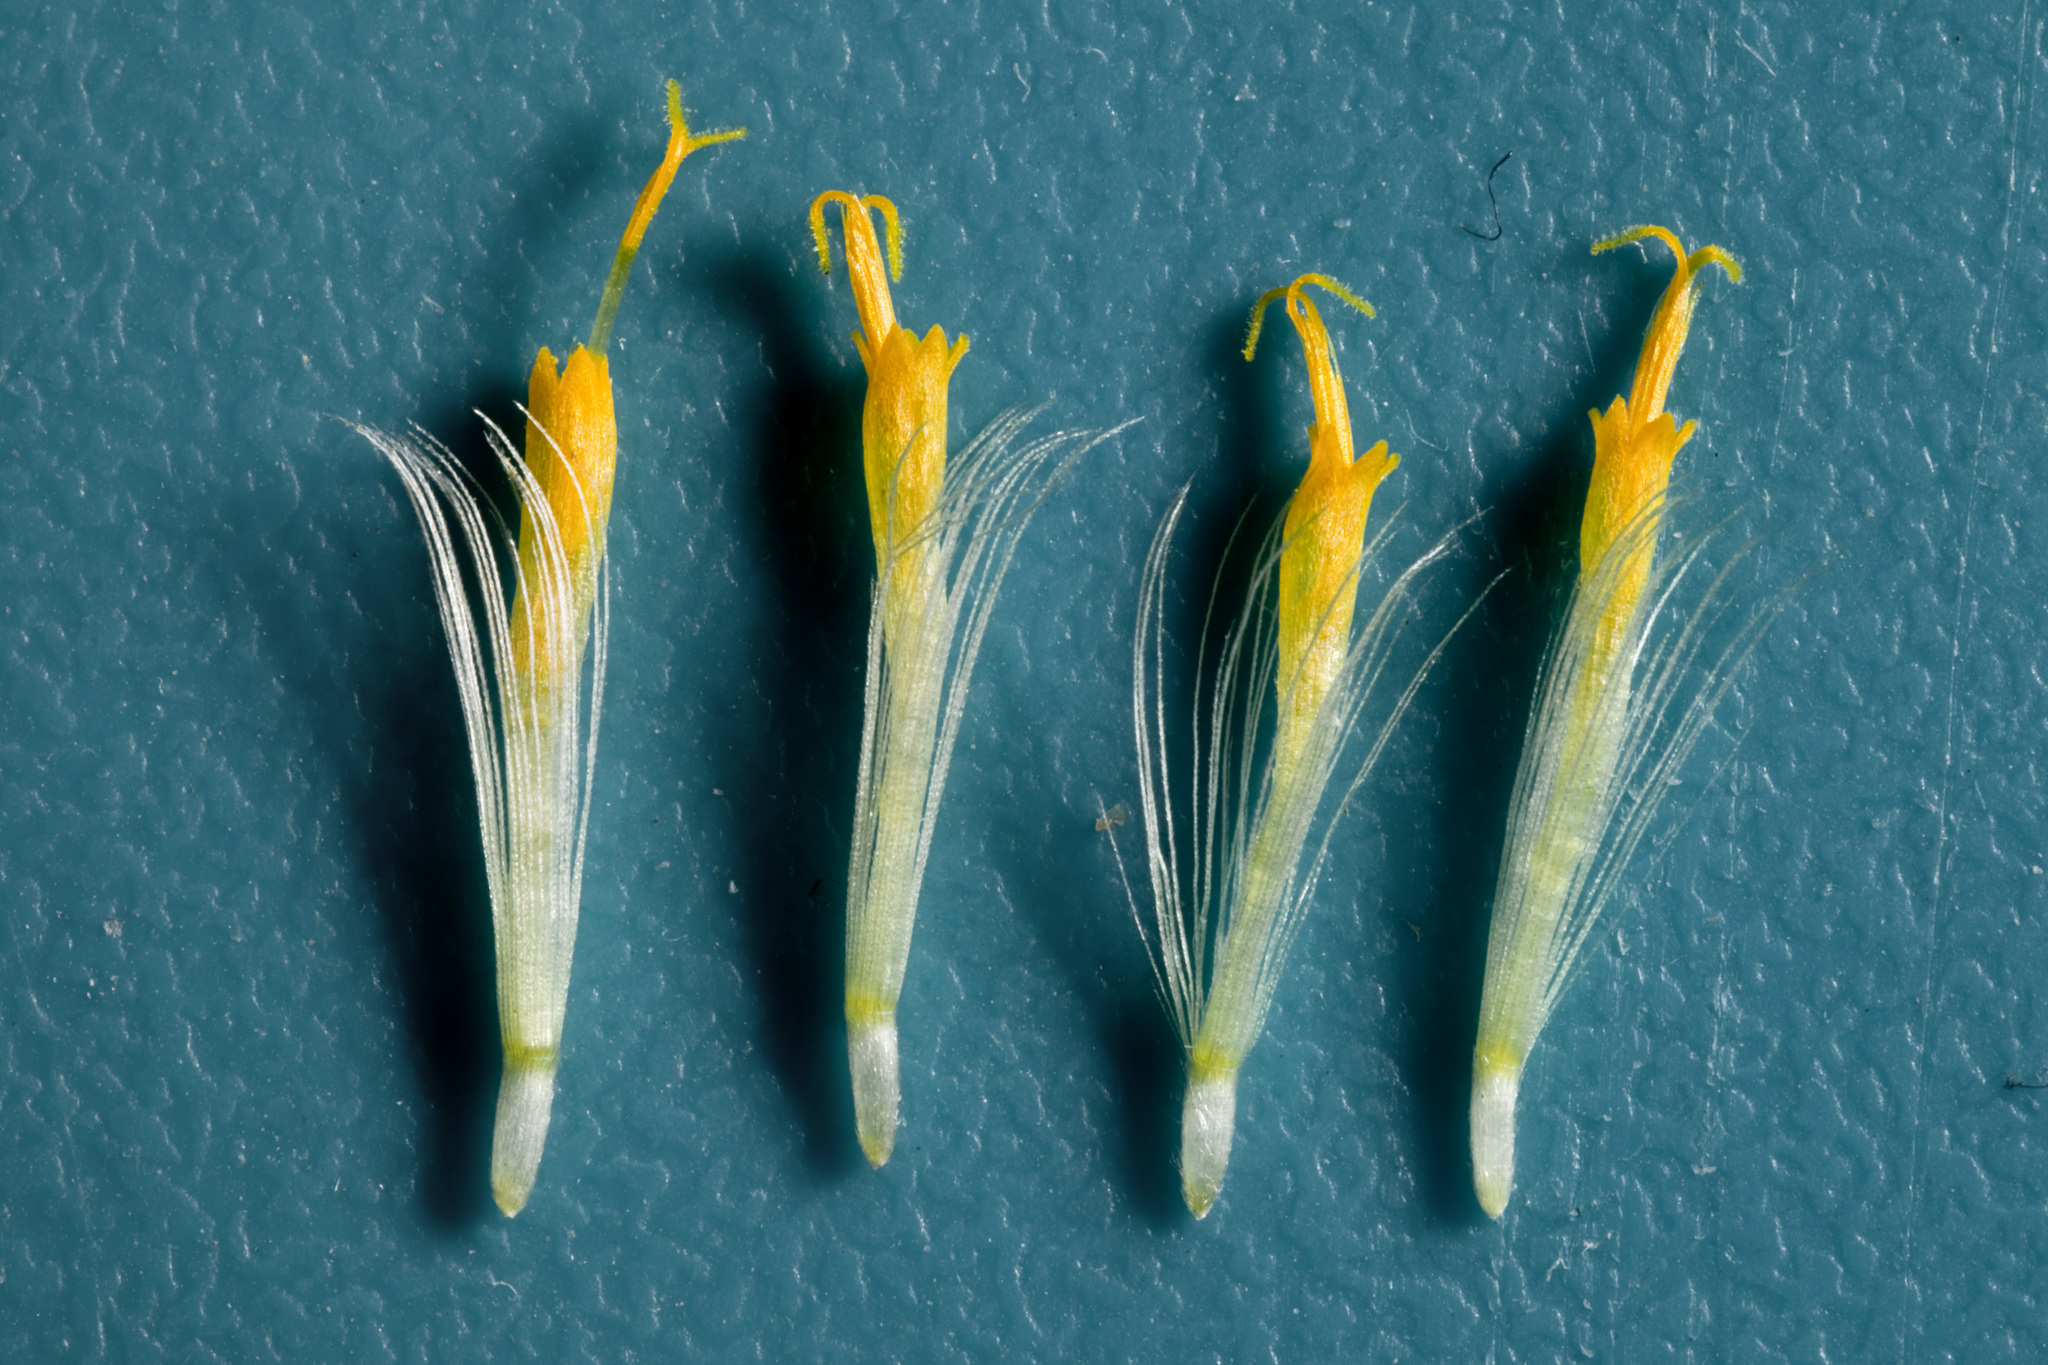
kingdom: Plantae
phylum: Tracheophyta
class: Magnoliopsida
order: Asterales
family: Asteraceae
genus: Dieteria
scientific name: Dieteria canescens
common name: Hoary-aster
